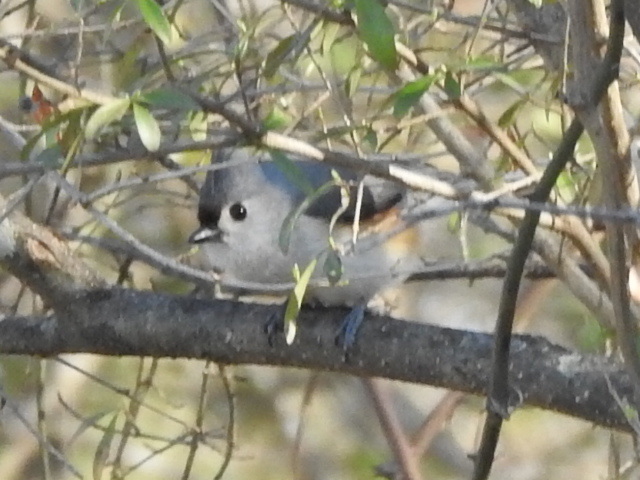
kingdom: Animalia
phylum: Chordata
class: Aves
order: Passeriformes
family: Paridae
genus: Baeolophus
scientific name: Baeolophus bicolor
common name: Tufted titmouse
